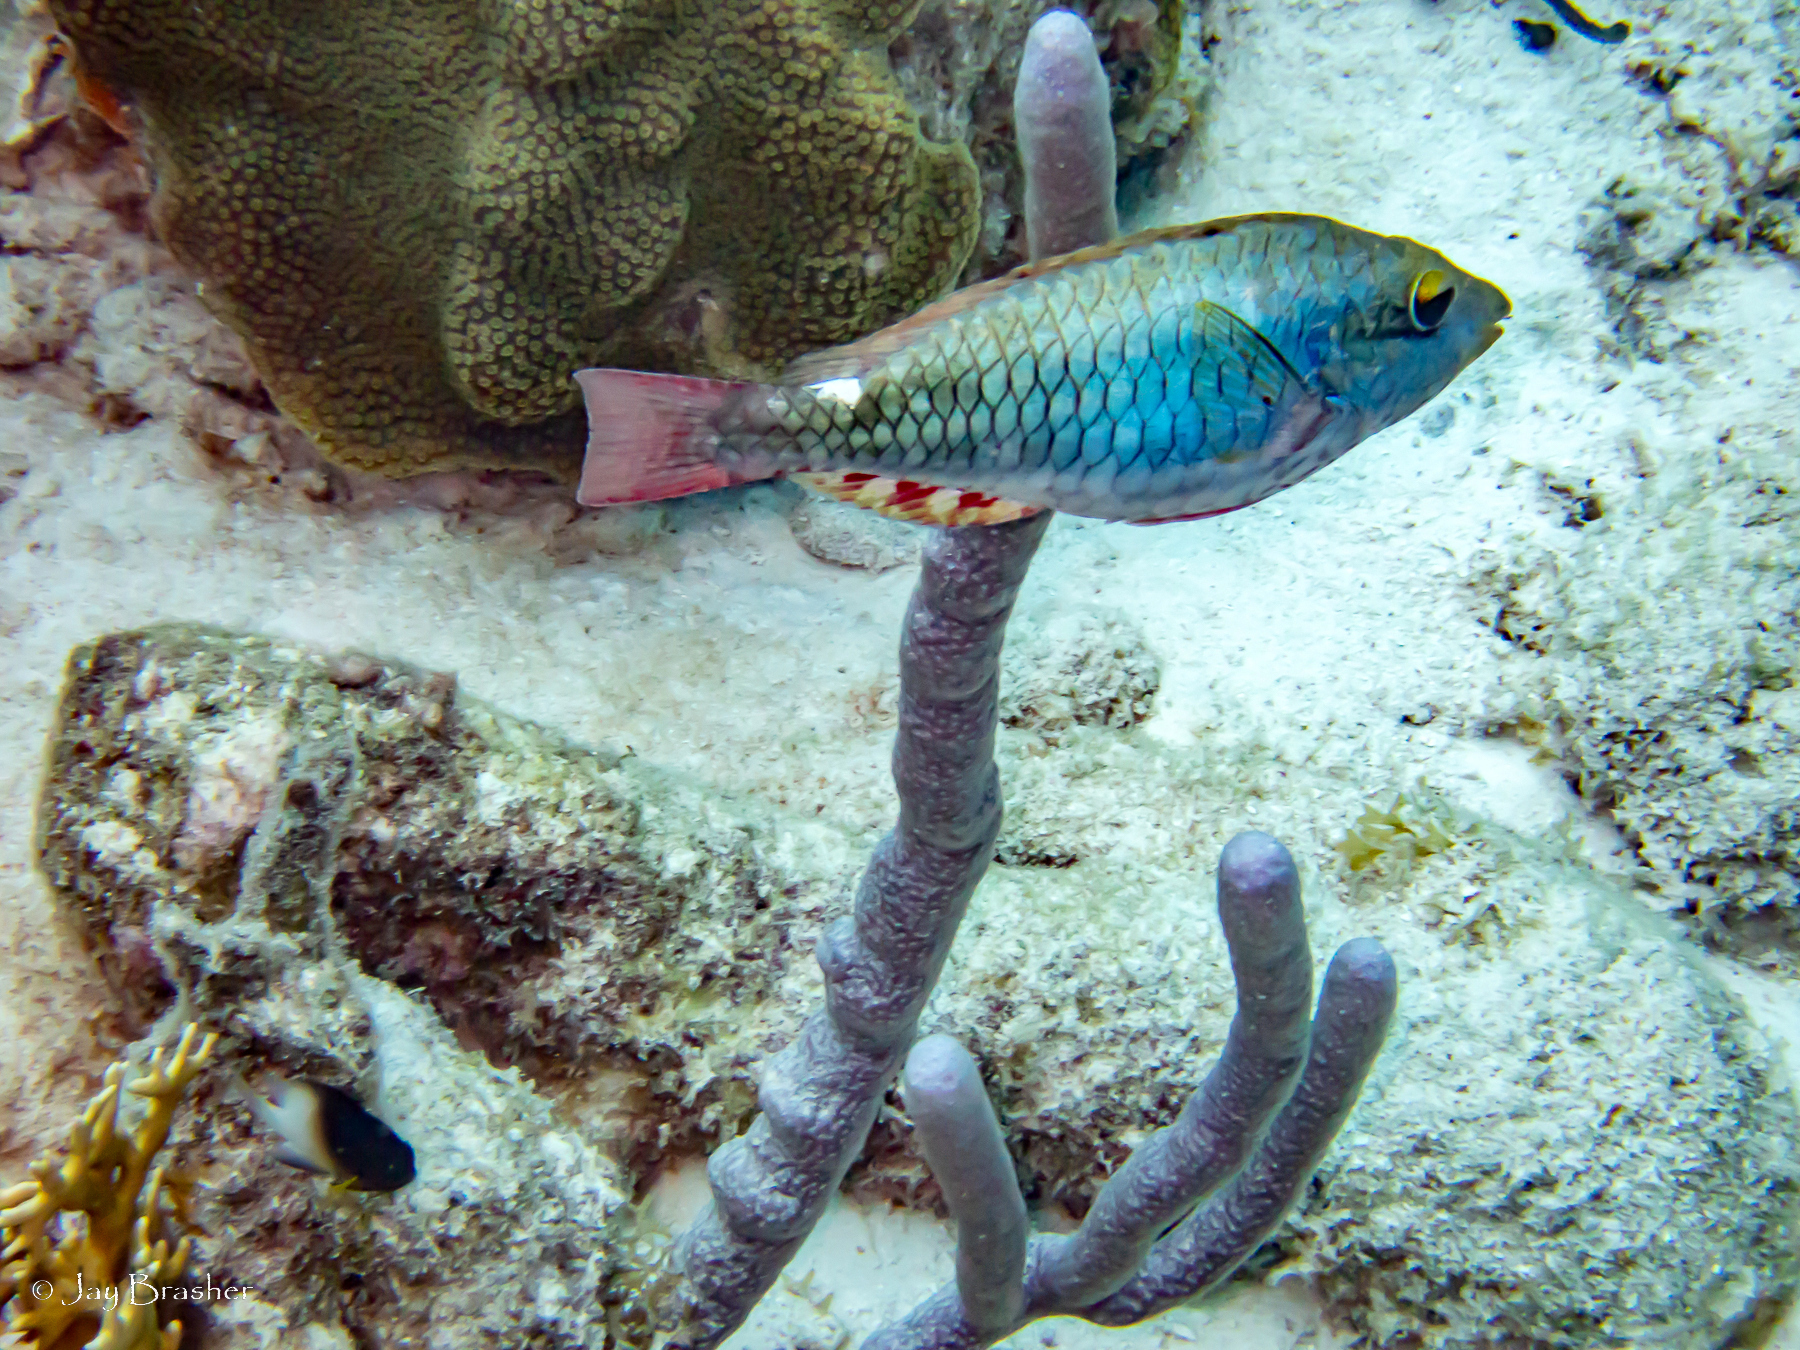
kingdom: Animalia
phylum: Chordata
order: Perciformes
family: Scaridae
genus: Sparisoma
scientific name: Sparisoma aurofrenatum
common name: Redband parrotfish
